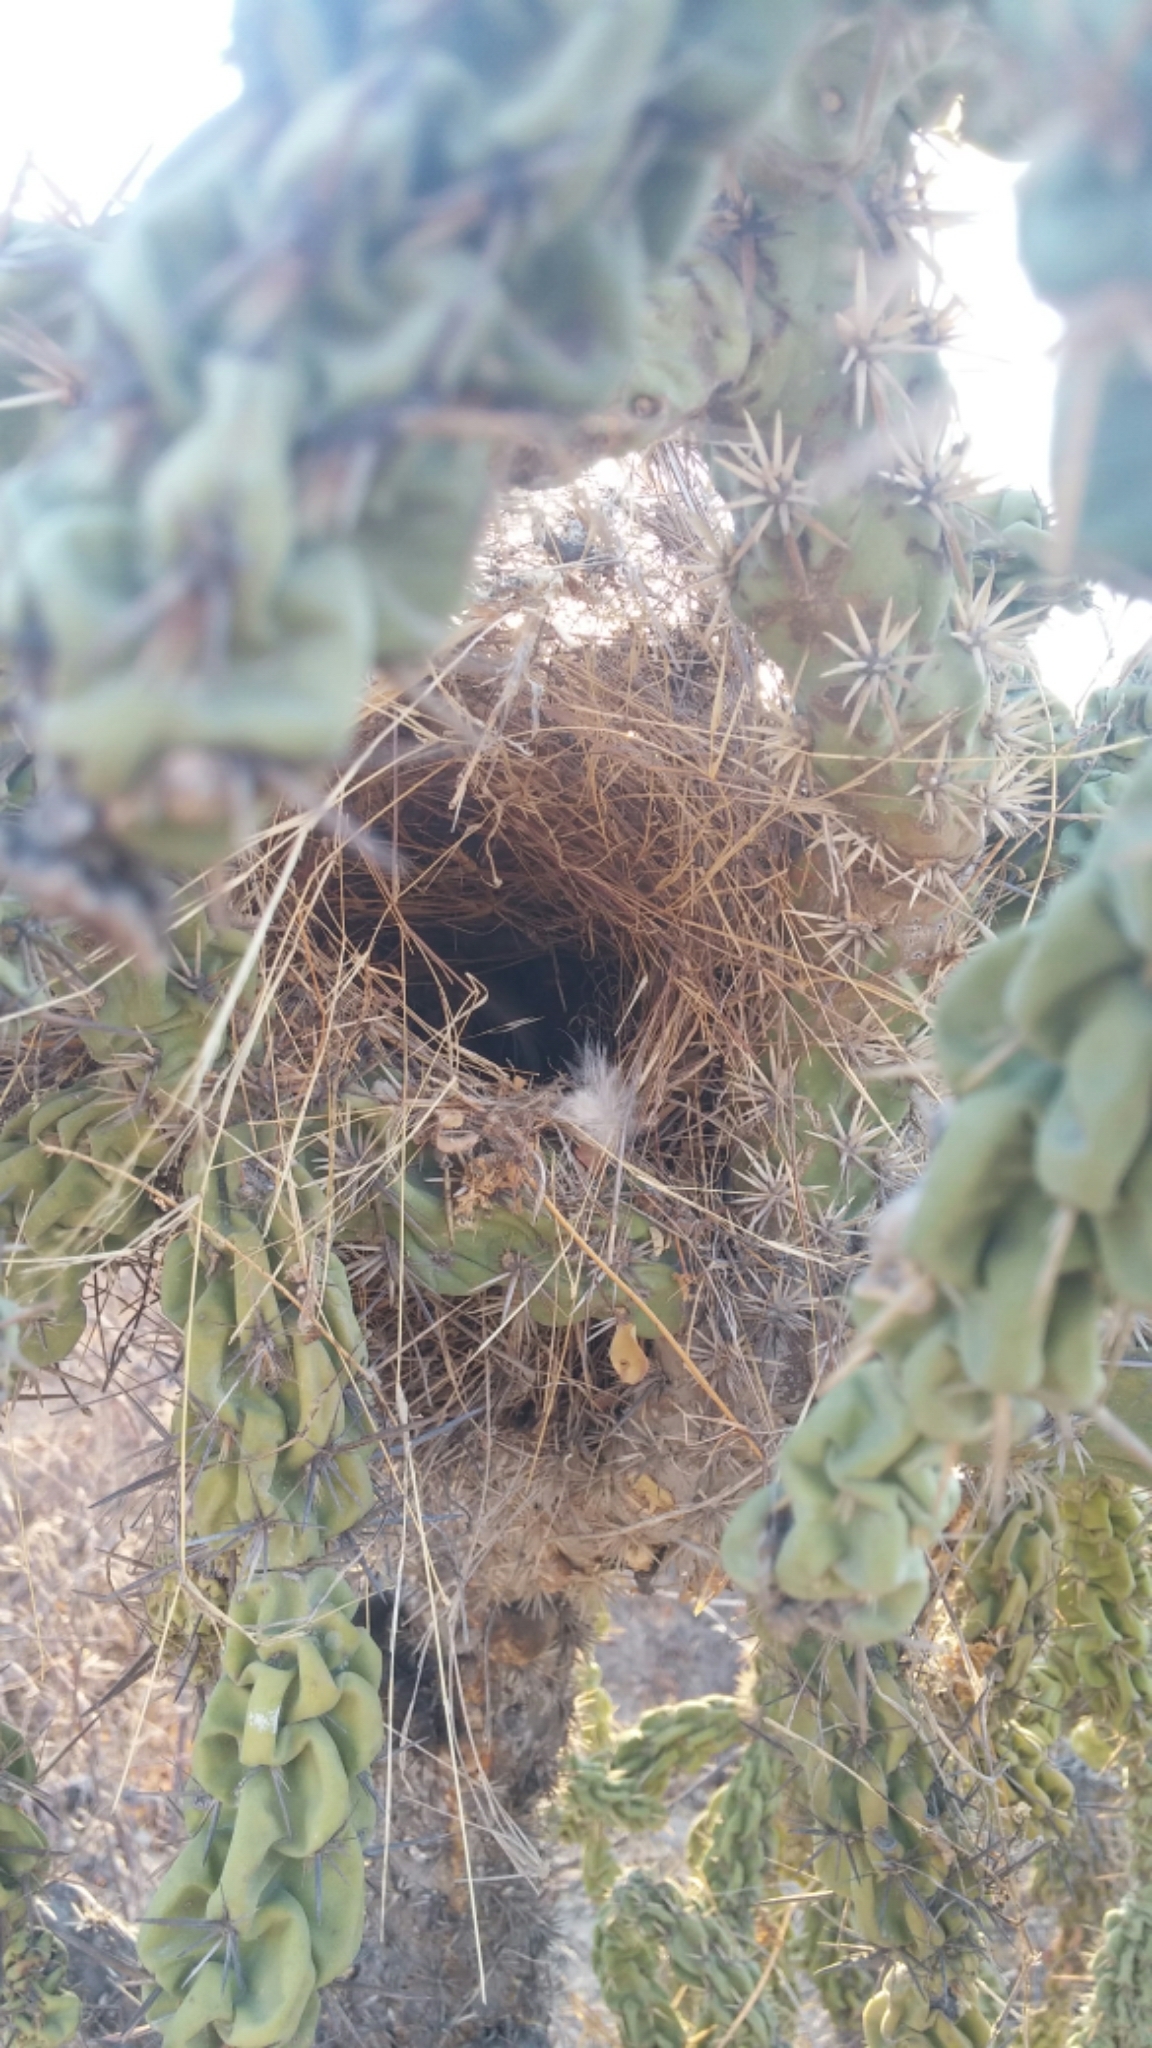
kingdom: Animalia
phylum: Chordata
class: Aves
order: Passeriformes
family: Troglodytidae
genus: Campylorhynchus
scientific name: Campylorhynchus brunneicapillus
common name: Cactus wren
